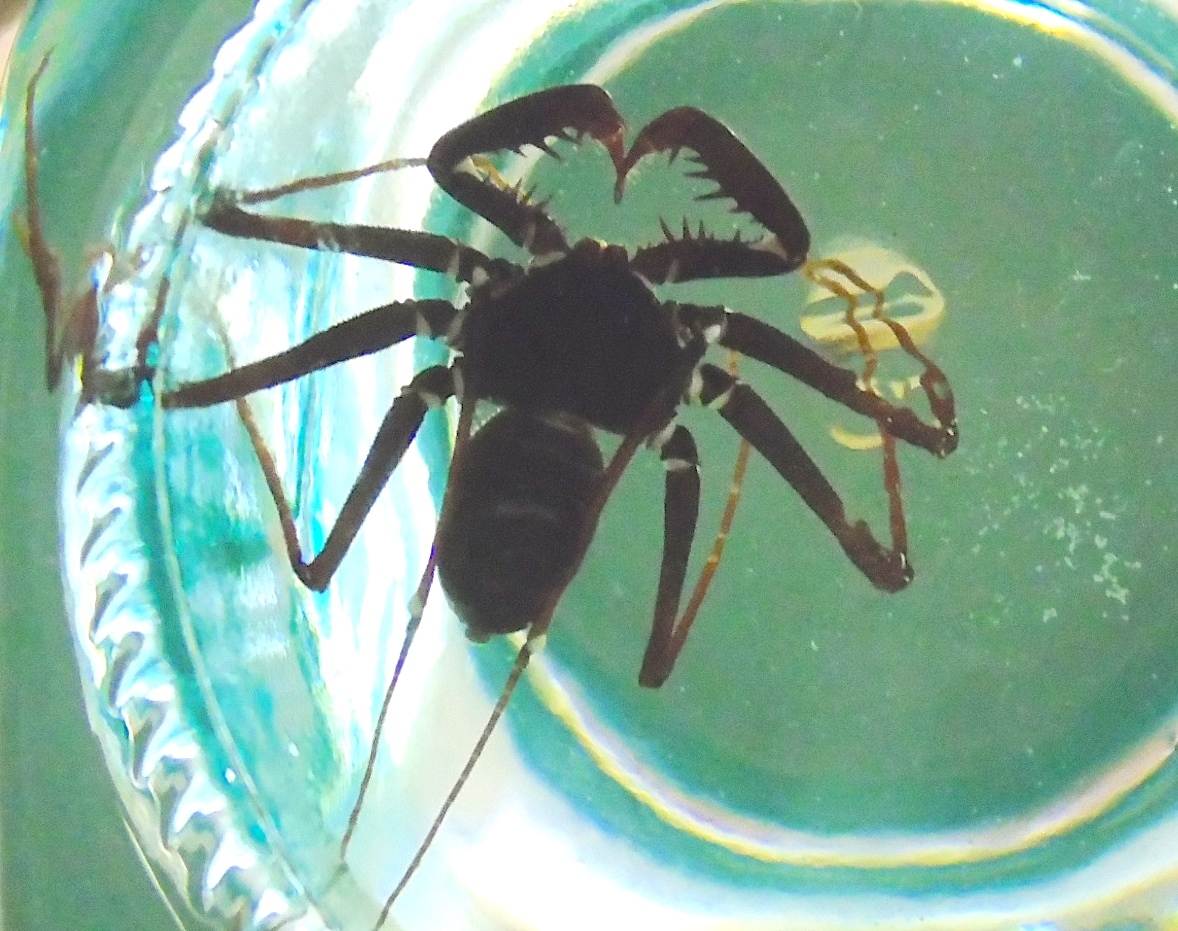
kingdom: Animalia
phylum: Arthropoda
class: Arachnida
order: Amblypygi
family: Phrynidae
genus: Acanthophrynus
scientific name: Acanthophrynus coronatus
